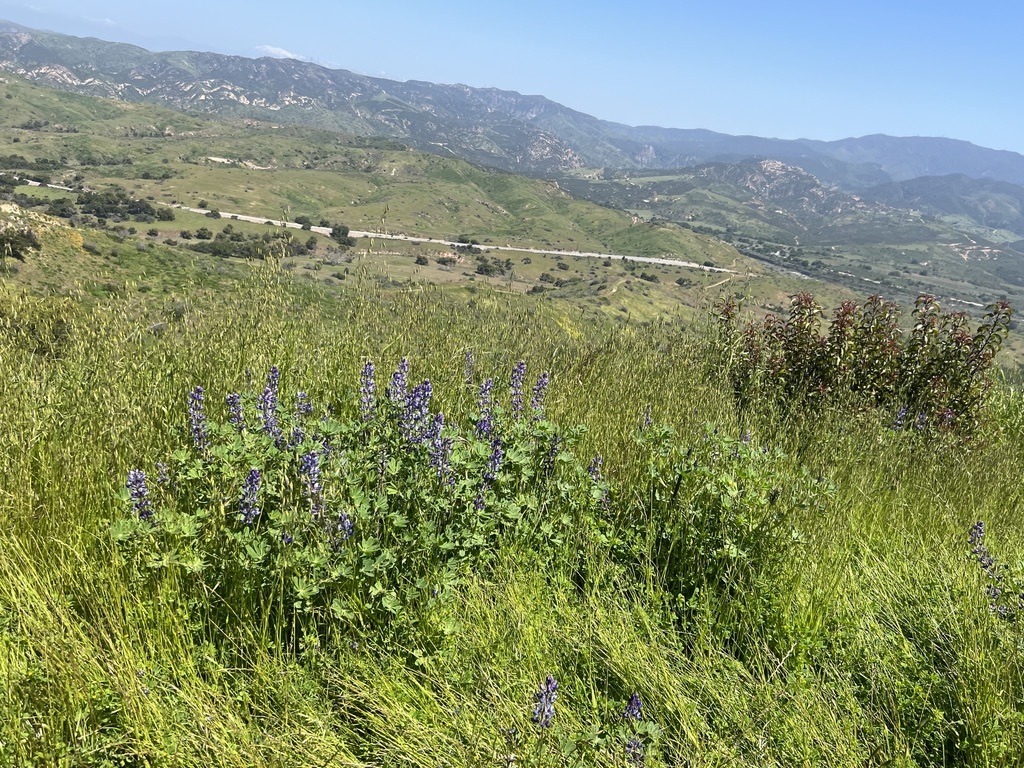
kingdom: Plantae
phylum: Tracheophyta
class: Magnoliopsida
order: Fabales
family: Fabaceae
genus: Lupinus
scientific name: Lupinus succulentus
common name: Arroyo lupine
